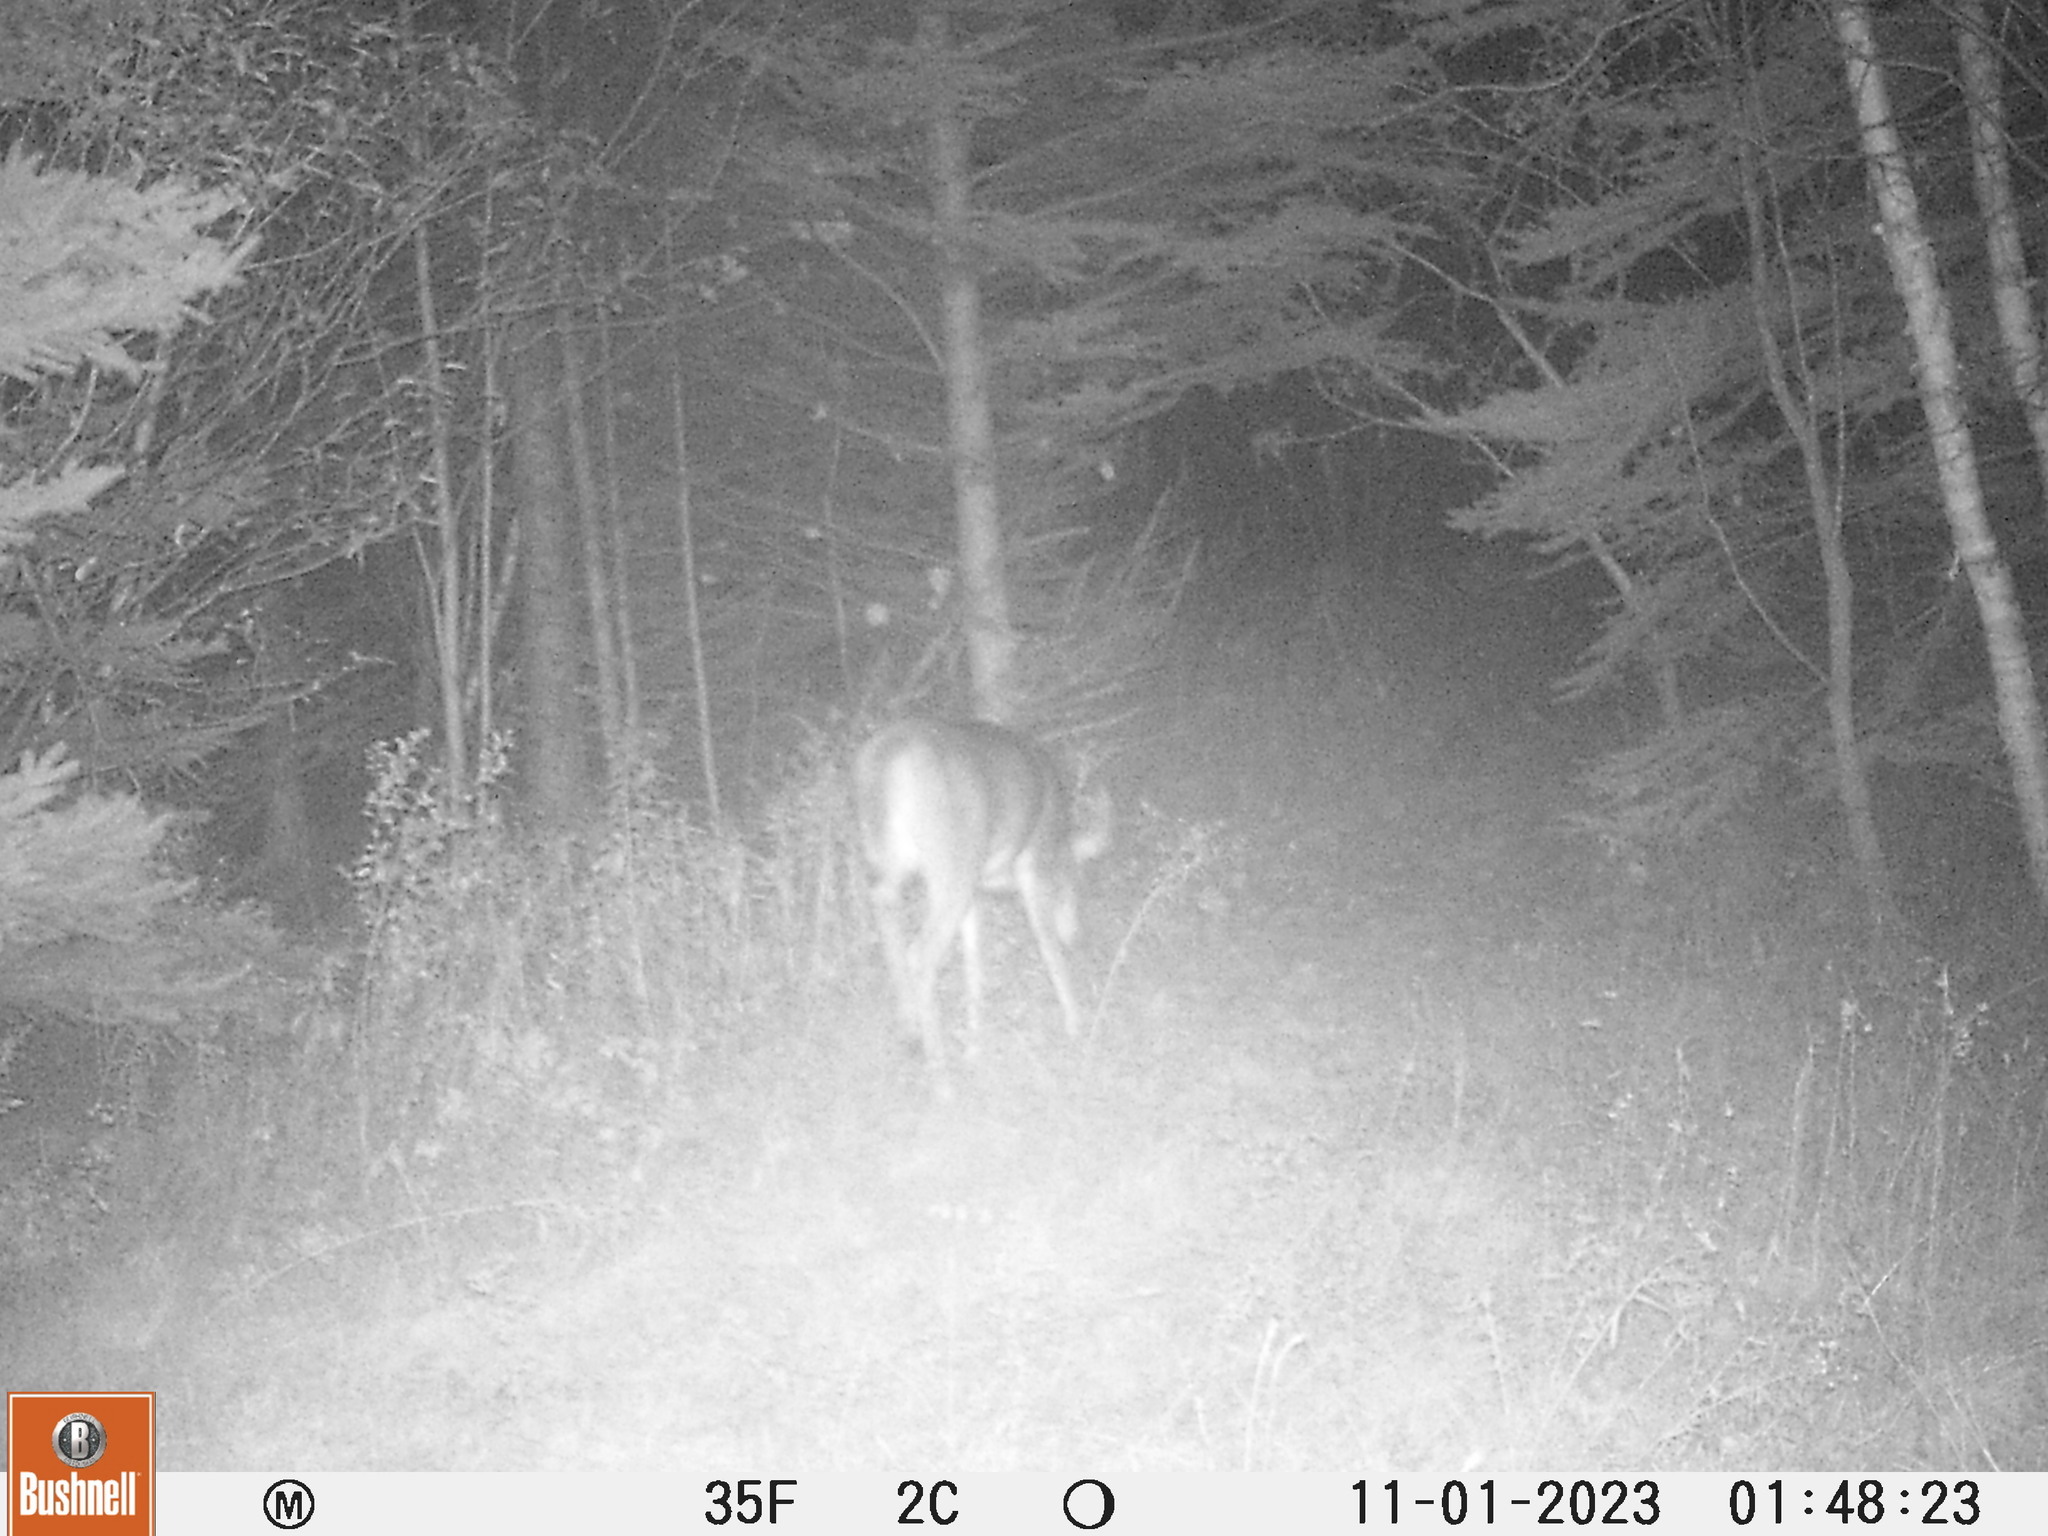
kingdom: Animalia
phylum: Chordata
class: Mammalia
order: Artiodactyla
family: Cervidae
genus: Odocoileus
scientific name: Odocoileus virginianus
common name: White-tailed deer
